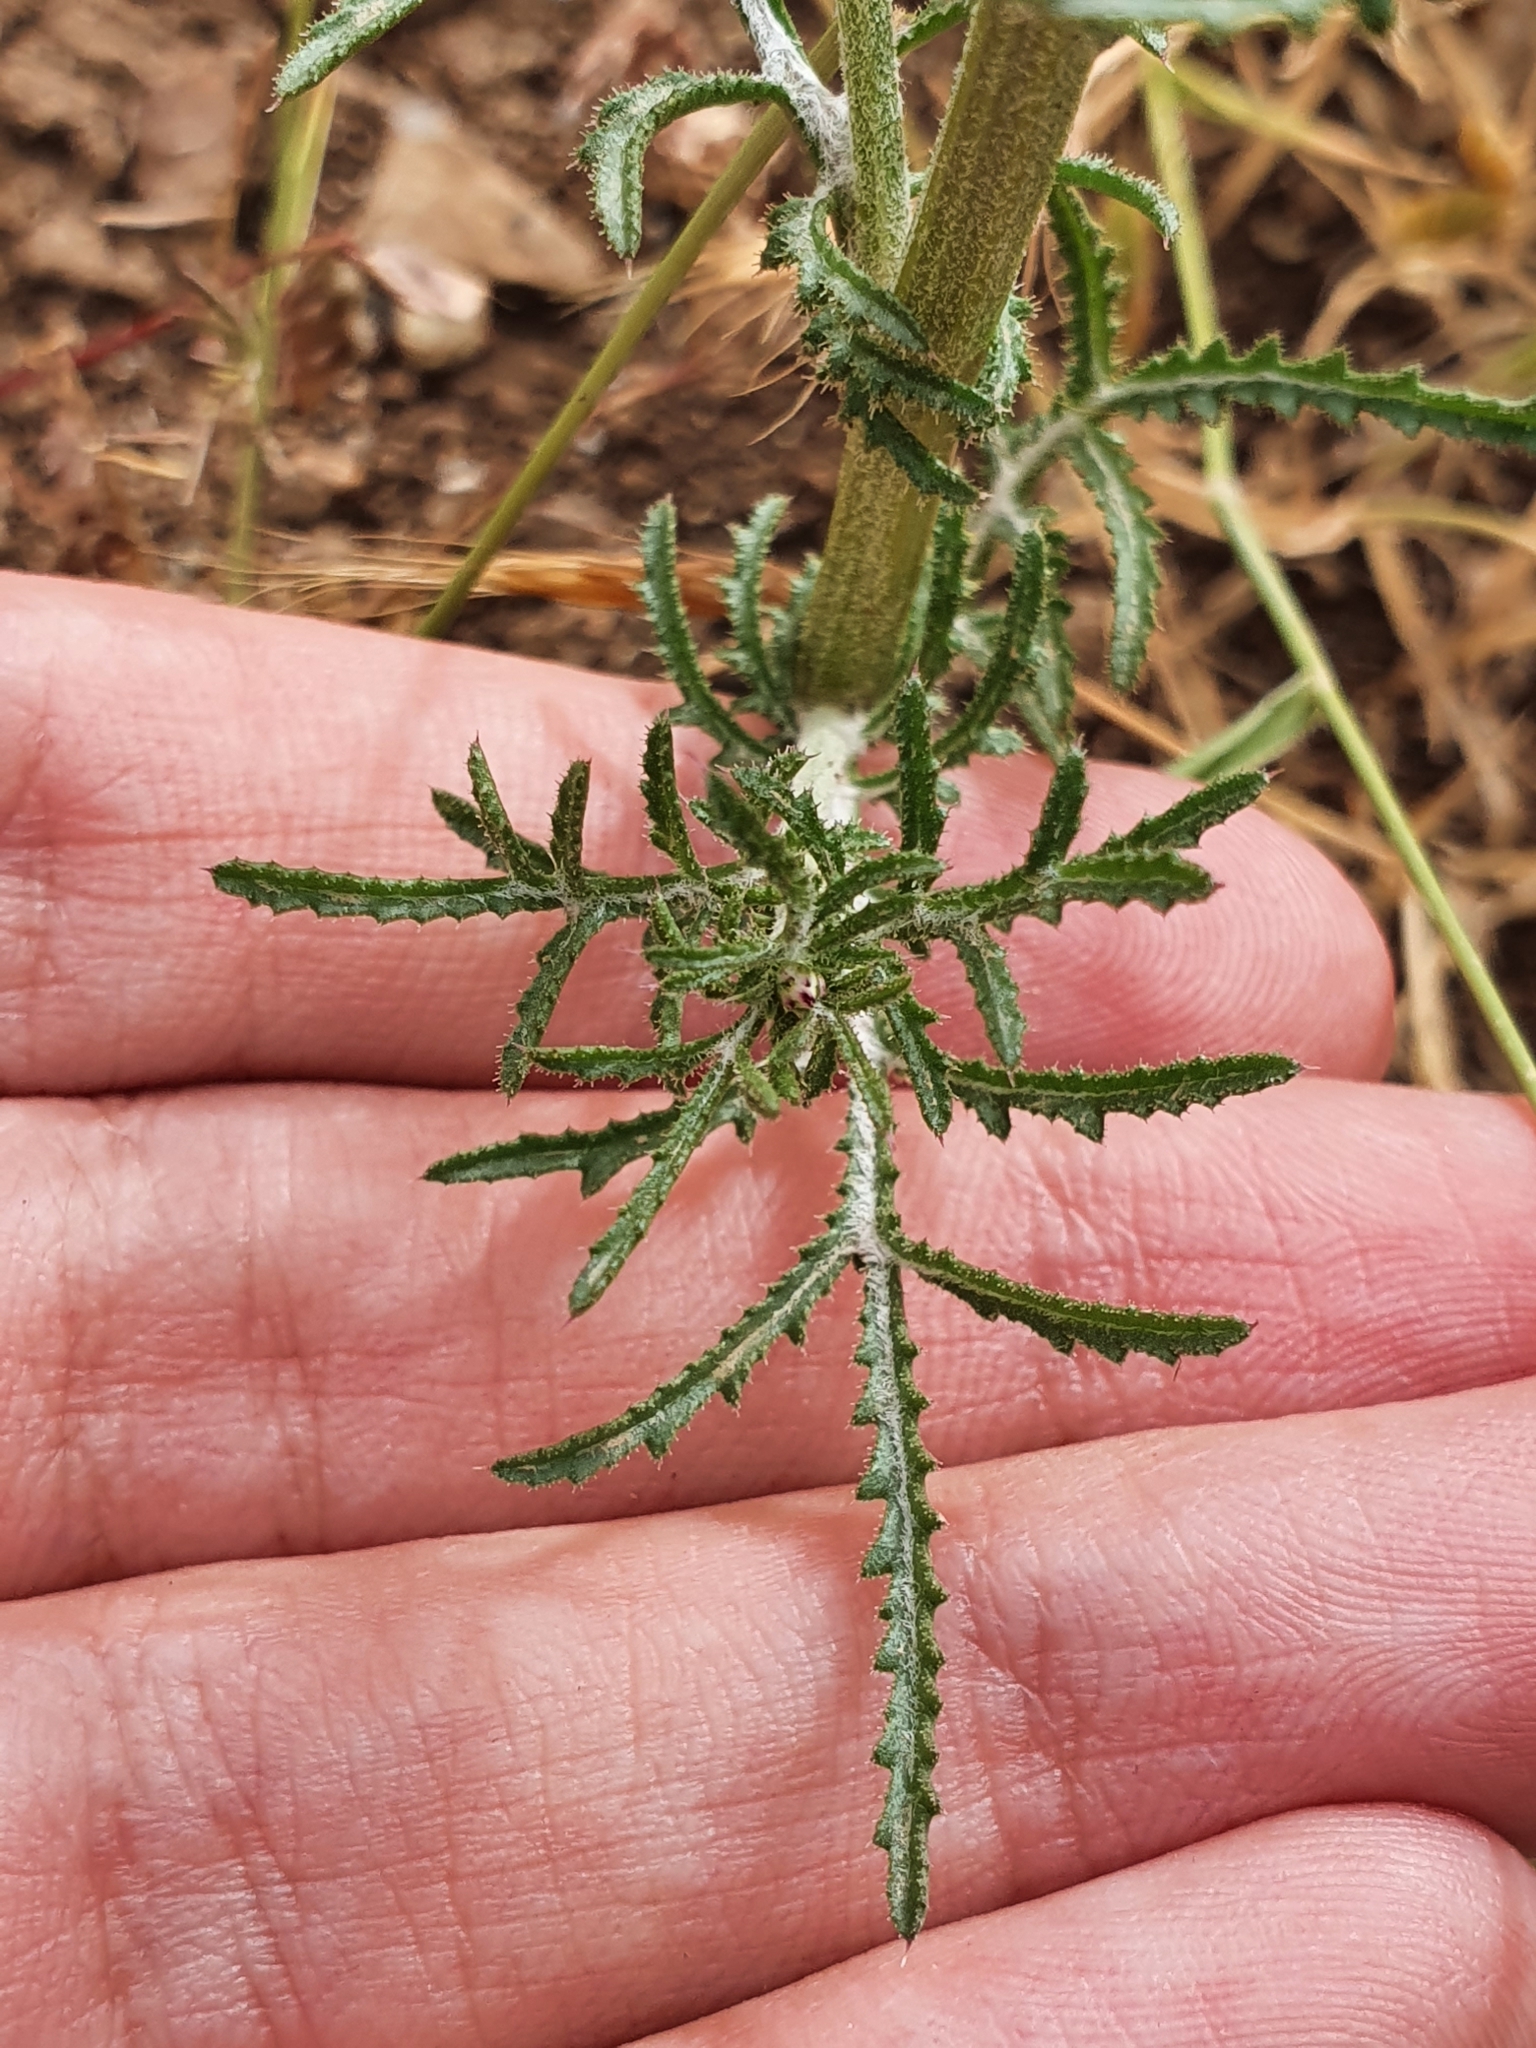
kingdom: Plantae
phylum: Tracheophyta
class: Magnoliopsida
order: Asterales
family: Asteraceae
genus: Crupina
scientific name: Crupina crupinastrum
